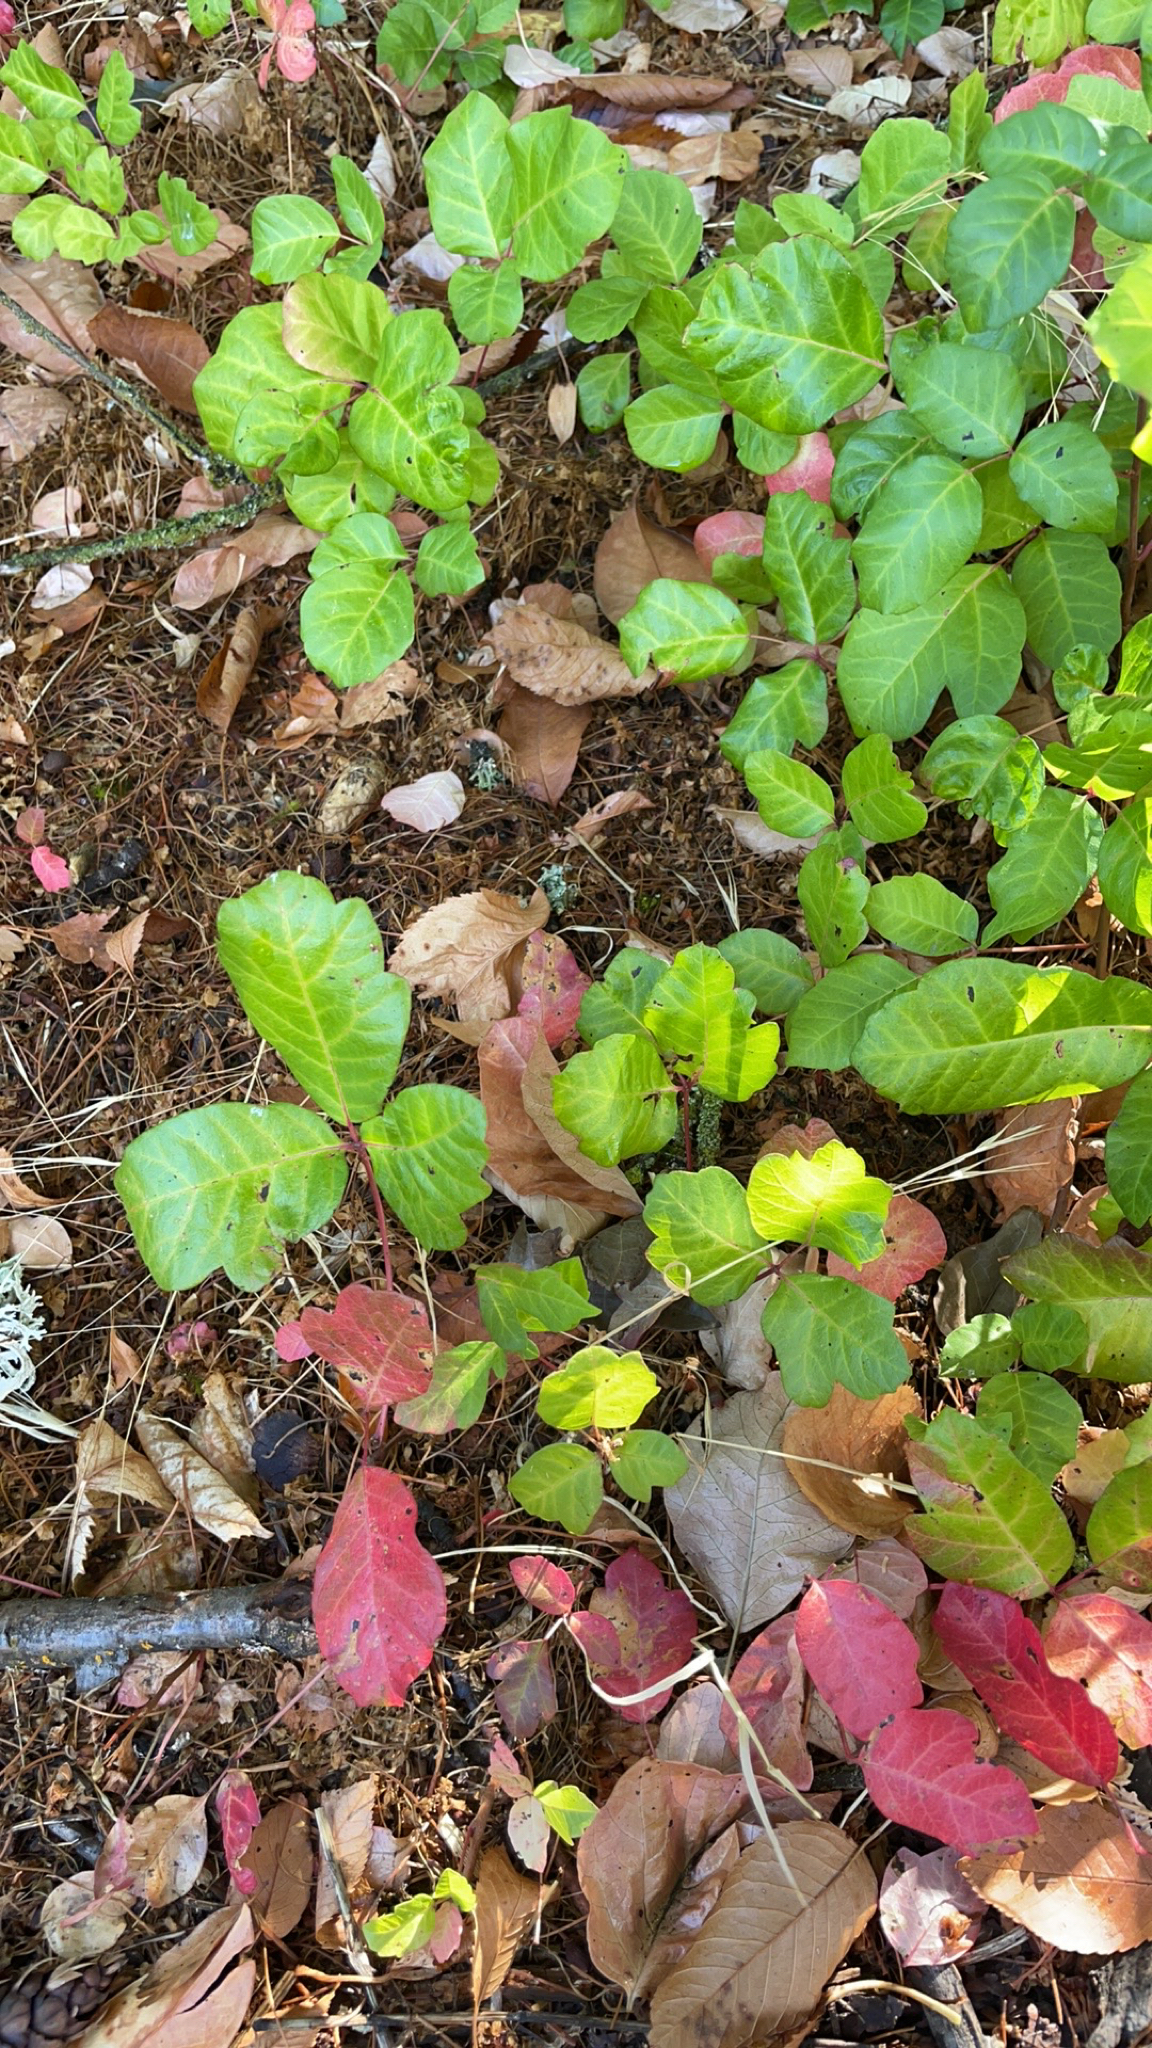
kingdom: Plantae
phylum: Tracheophyta
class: Magnoliopsida
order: Sapindales
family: Anacardiaceae
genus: Toxicodendron
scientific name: Toxicodendron diversilobum
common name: Pacific poison-oak
